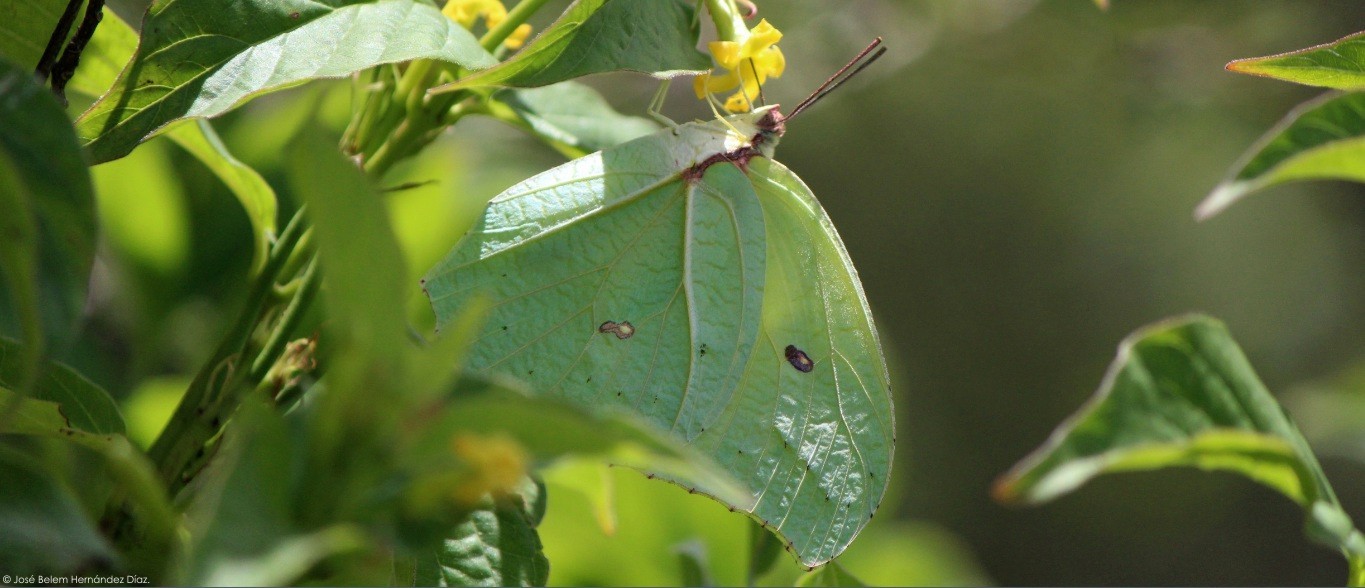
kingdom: Animalia
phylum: Arthropoda
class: Insecta
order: Lepidoptera
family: Pieridae
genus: Anteos
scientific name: Anteos maerula
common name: Angled sulphur
